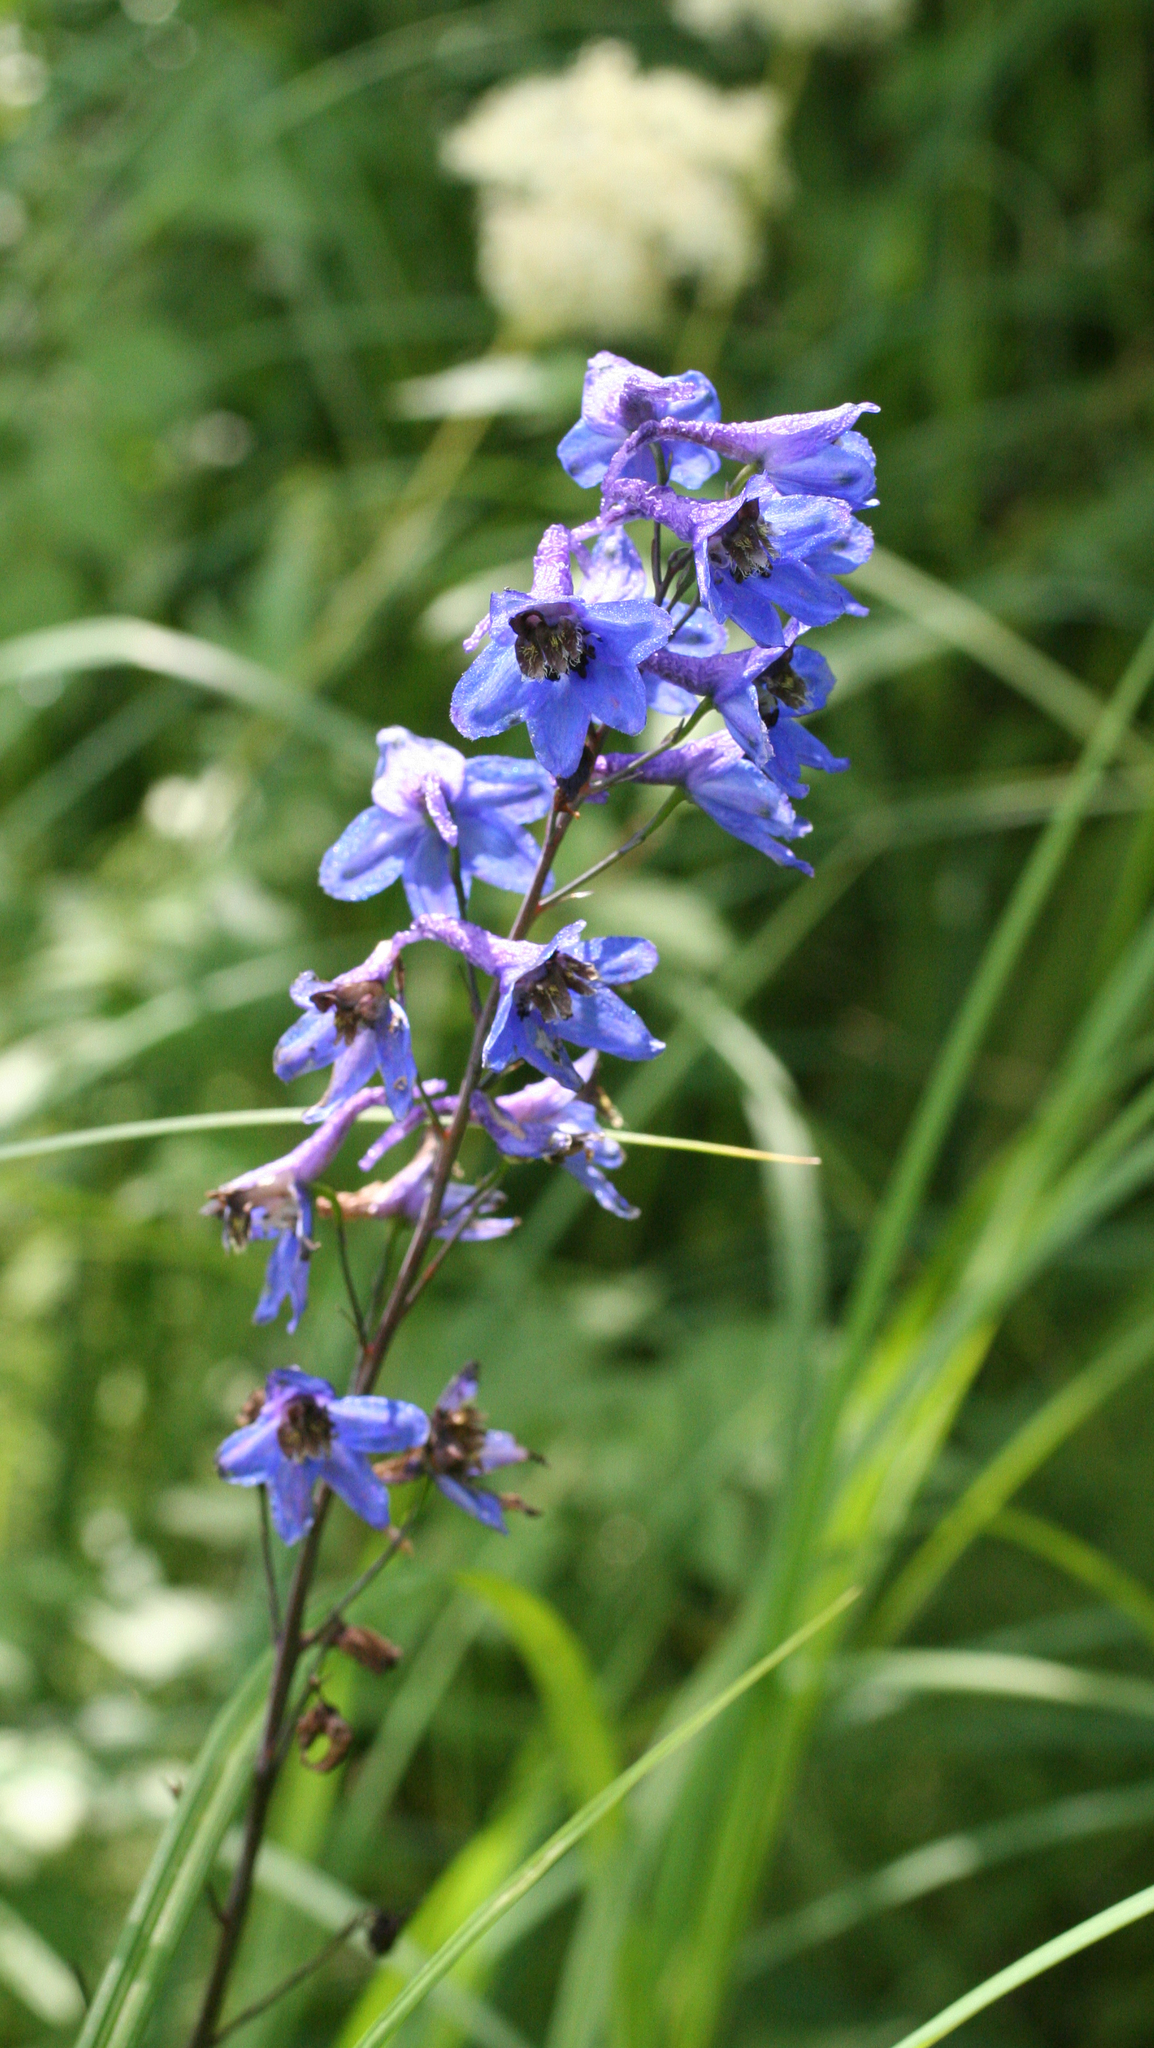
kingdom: Plantae
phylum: Tracheophyta
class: Magnoliopsida
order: Ranunculales
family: Ranunculaceae
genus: Delphinium
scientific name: Delphinium elatum
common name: Candle larkspur
